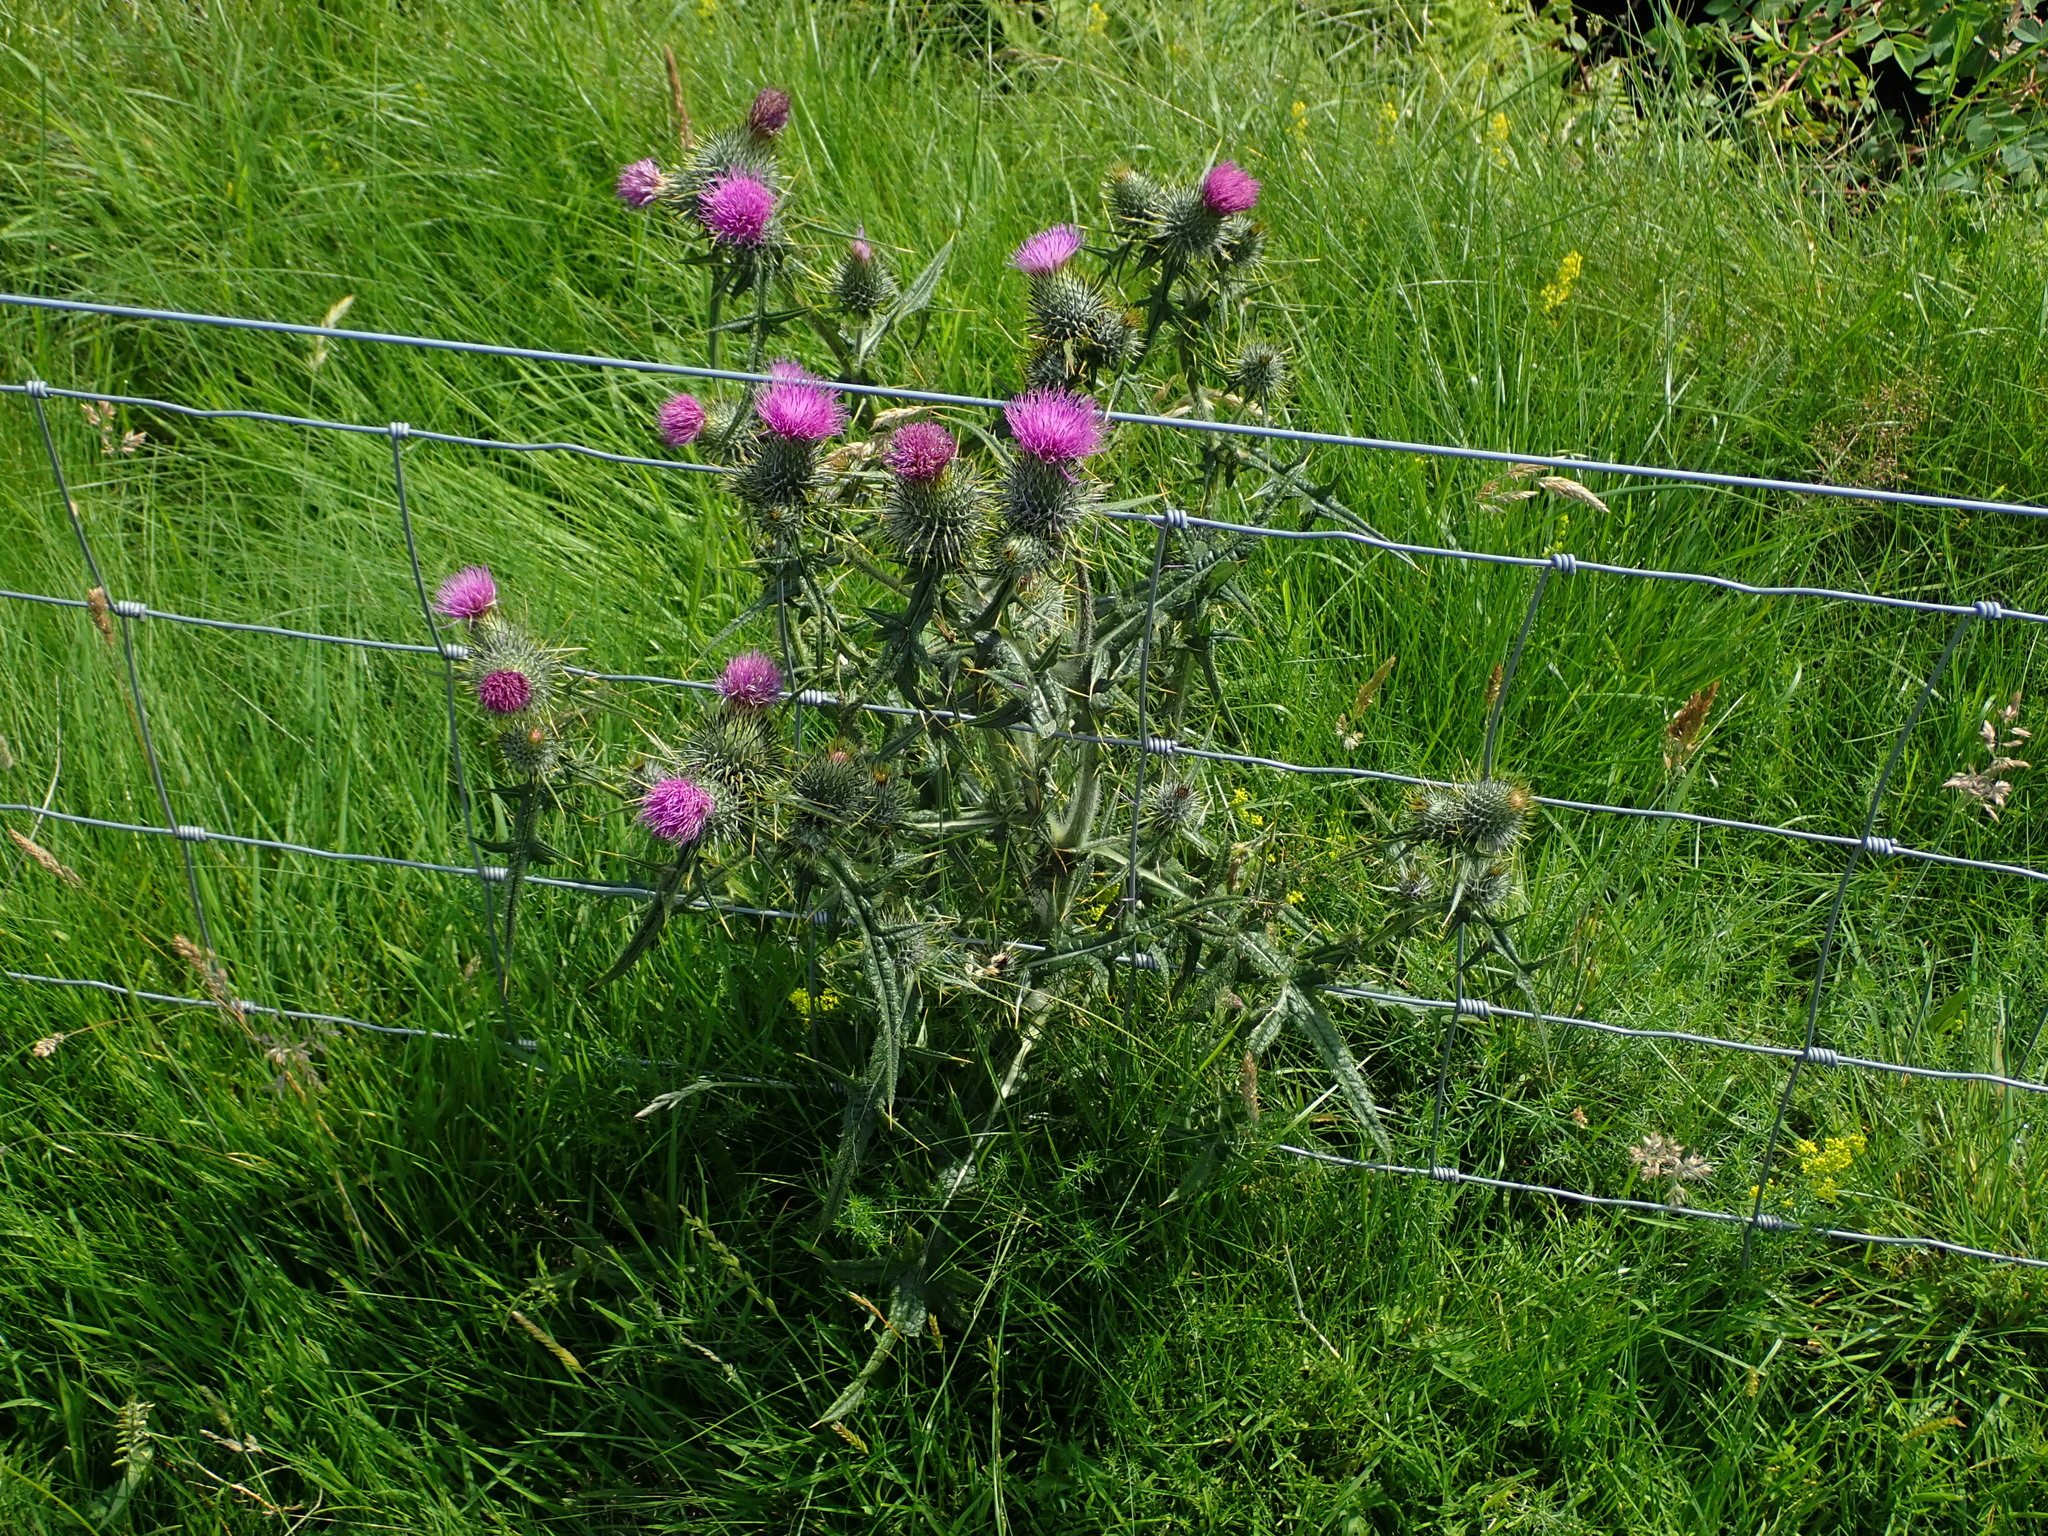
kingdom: Plantae
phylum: Tracheophyta
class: Magnoliopsida
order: Asterales
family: Asteraceae
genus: Cirsium
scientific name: Cirsium vulgare
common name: Bull thistle
